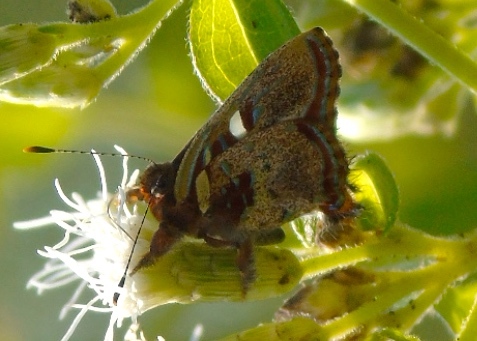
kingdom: Animalia
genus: Anteros
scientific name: Anteros carausius
